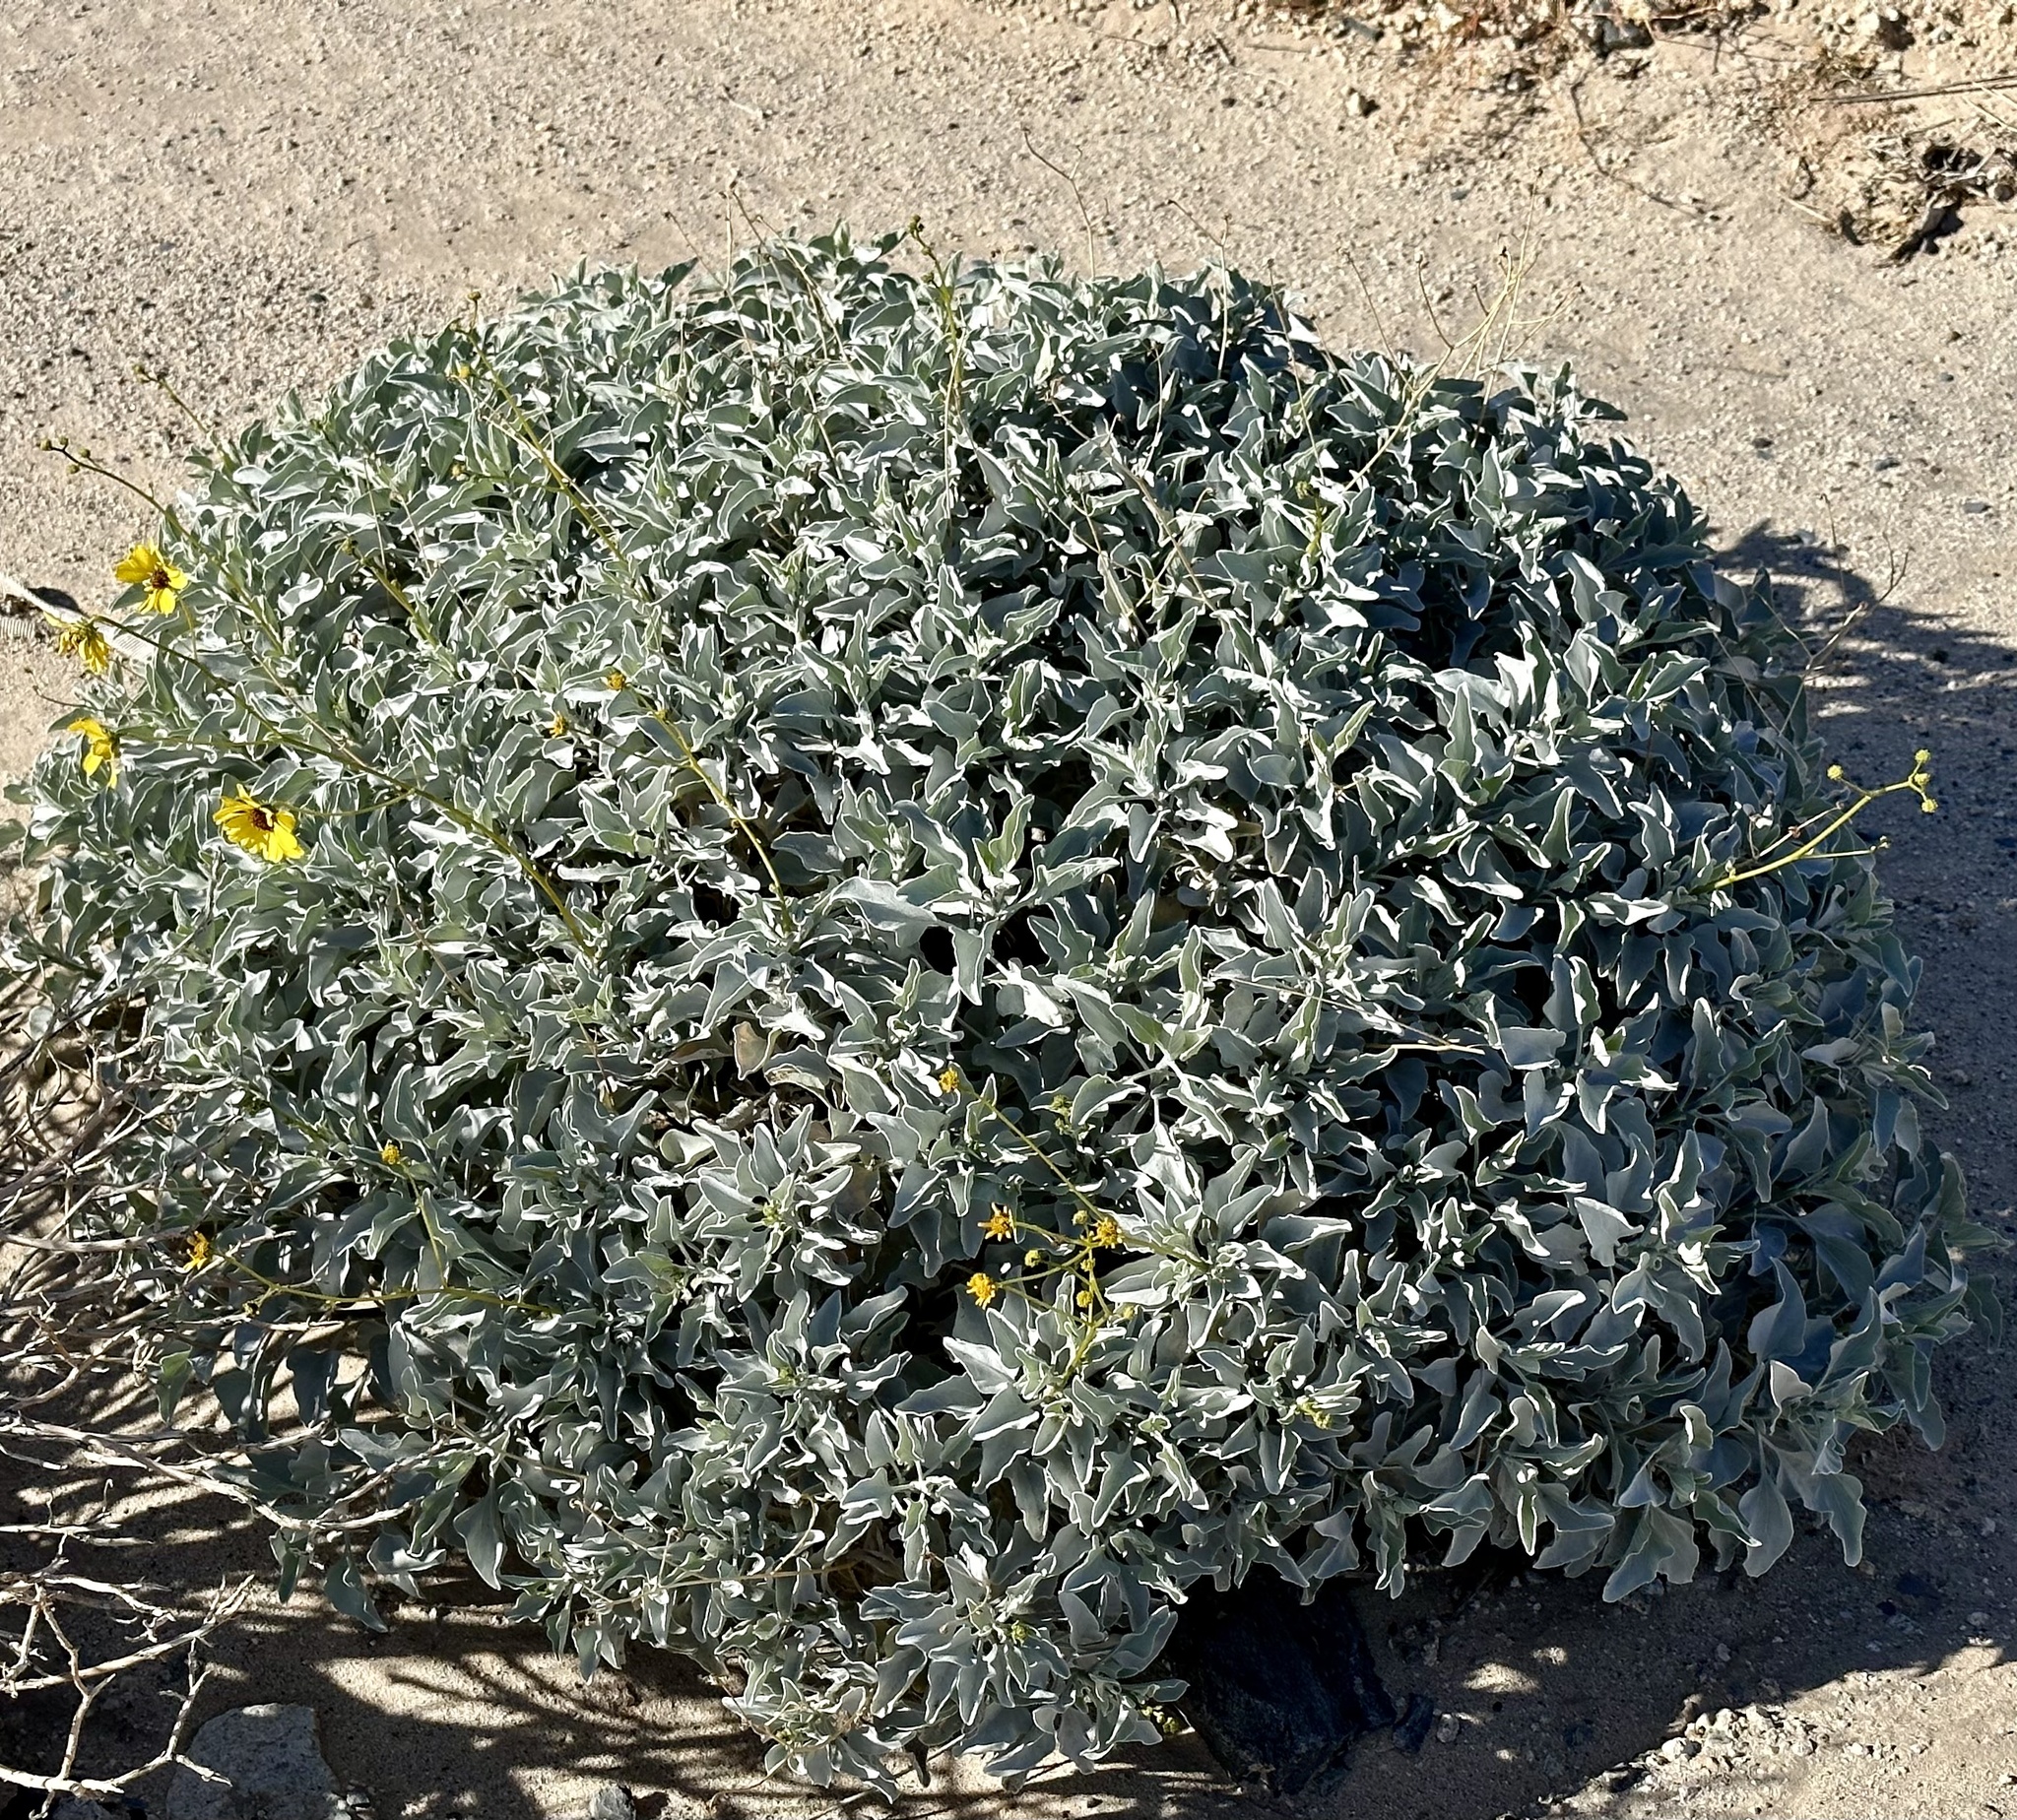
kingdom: Plantae
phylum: Tracheophyta
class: Magnoliopsida
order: Asterales
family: Asteraceae
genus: Encelia
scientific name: Encelia farinosa
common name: Brittlebush
